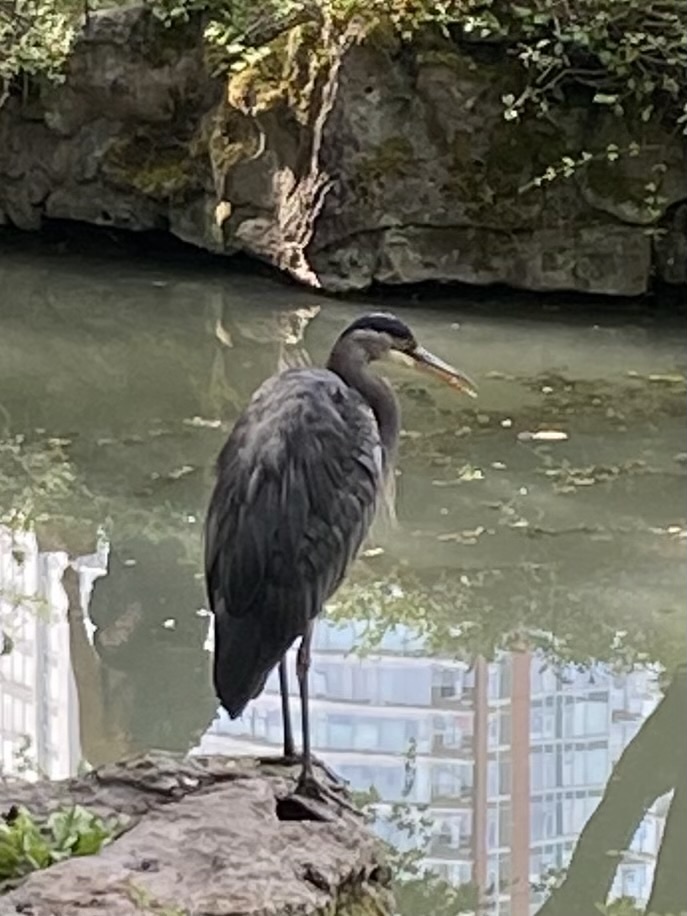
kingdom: Animalia
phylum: Chordata
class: Aves
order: Pelecaniformes
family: Ardeidae
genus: Ardea
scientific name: Ardea herodias
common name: Great blue heron
